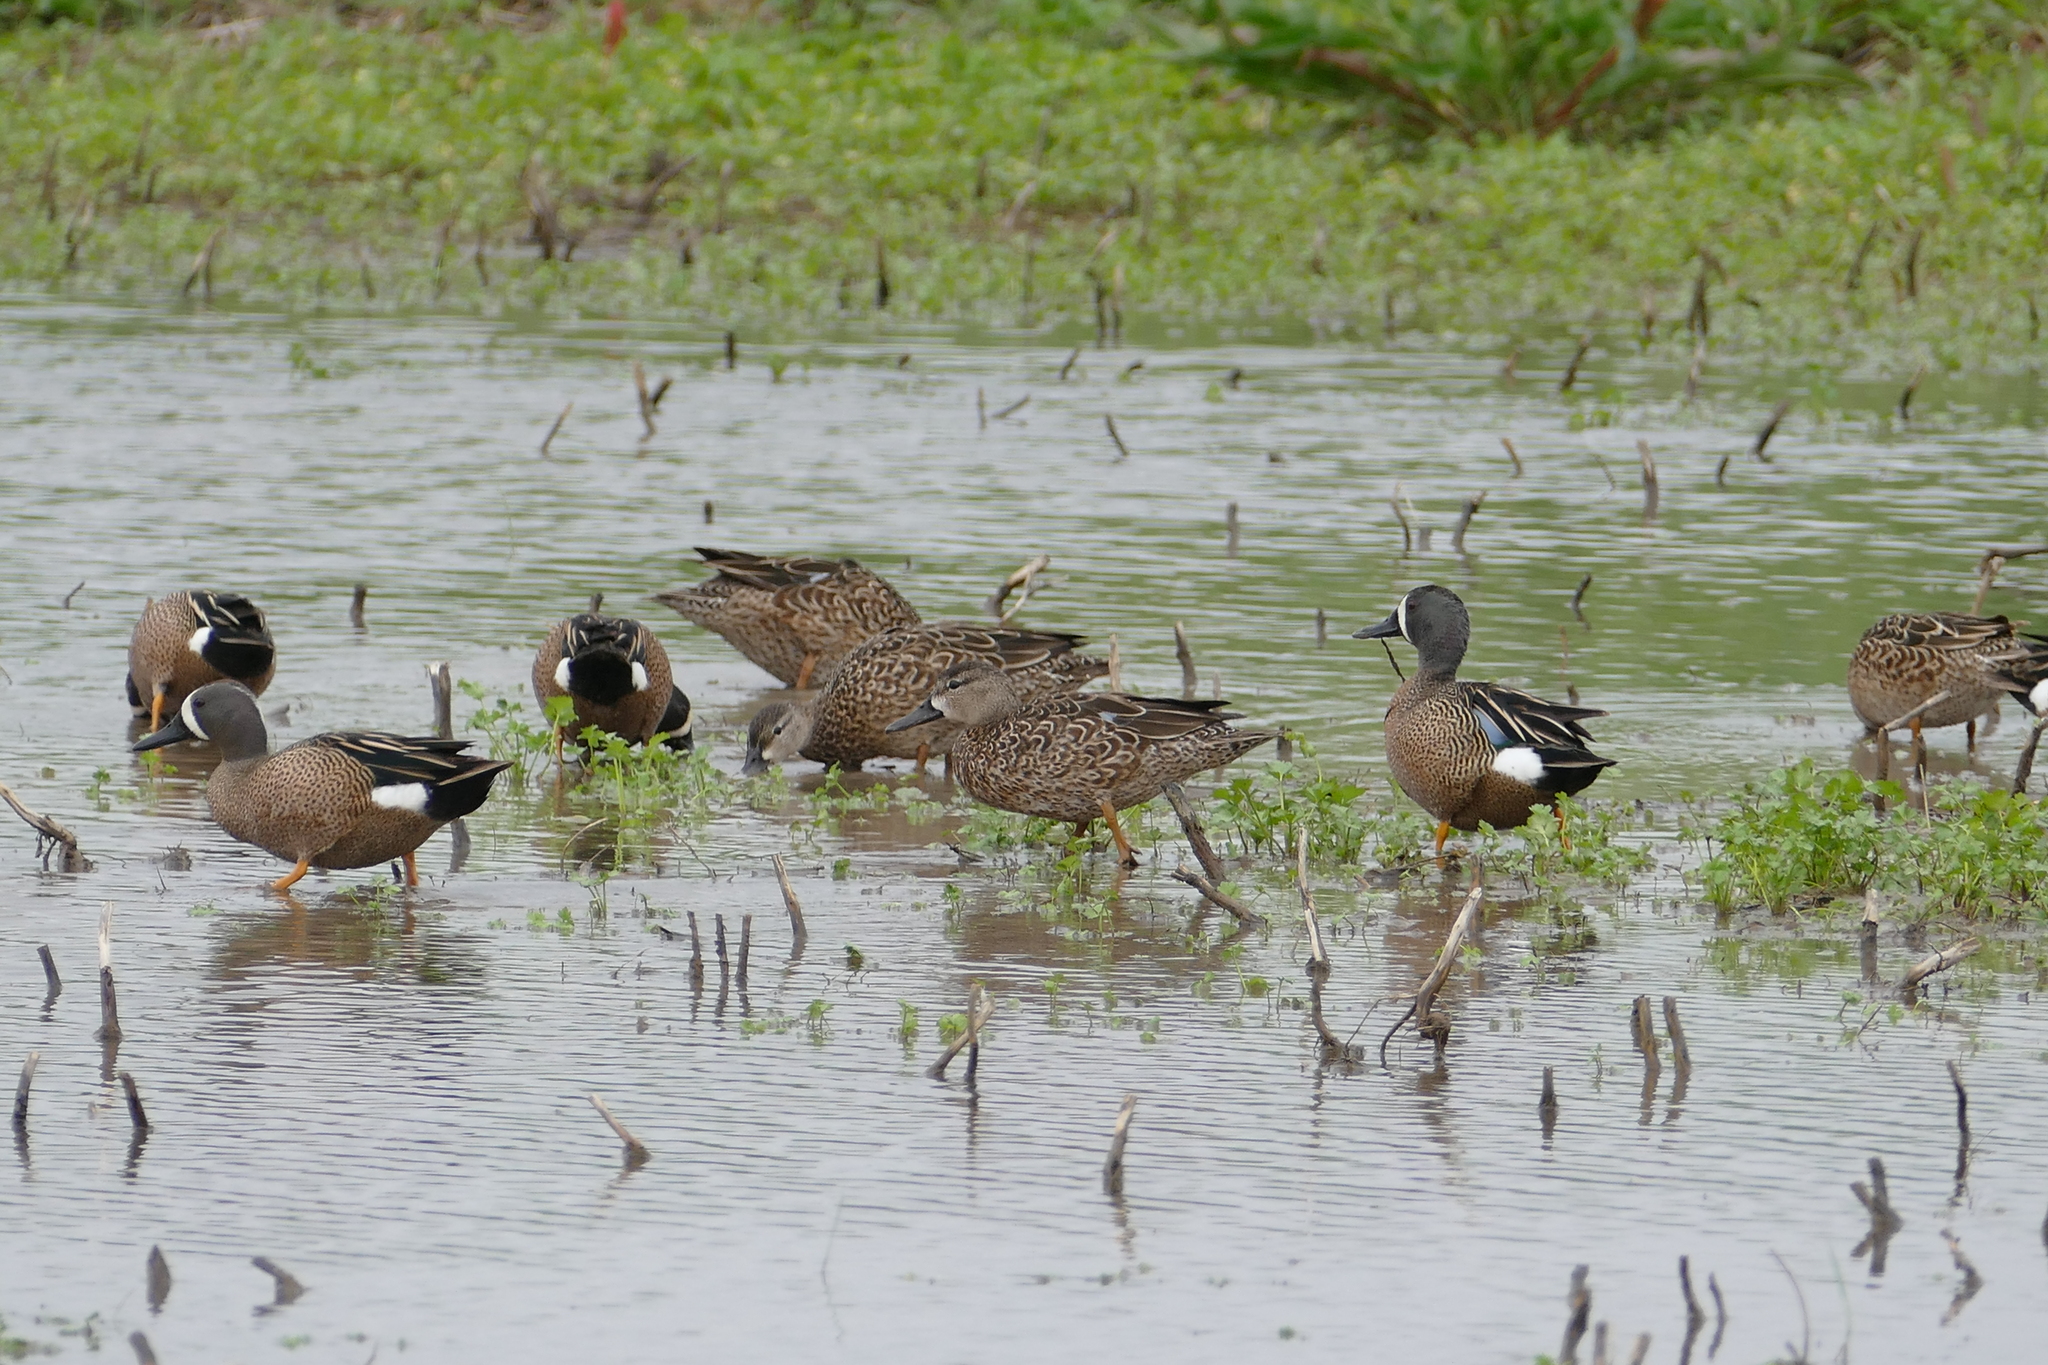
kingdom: Animalia
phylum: Chordata
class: Aves
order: Anseriformes
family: Anatidae
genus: Spatula
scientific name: Spatula discors
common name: Blue-winged teal
